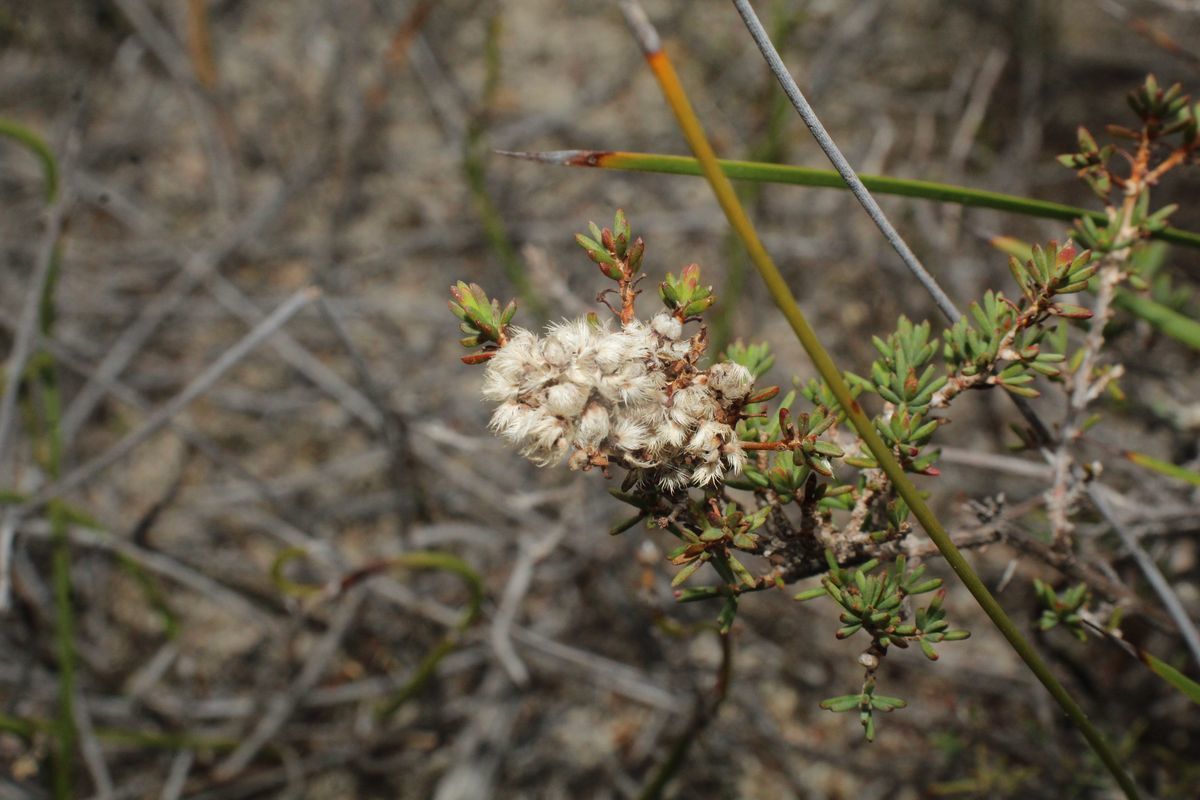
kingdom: Plantae
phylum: Tracheophyta
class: Magnoliopsida
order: Myrtales
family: Myrtaceae
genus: Verticordia
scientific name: Verticordia densiflora
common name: Compact feather-flower
